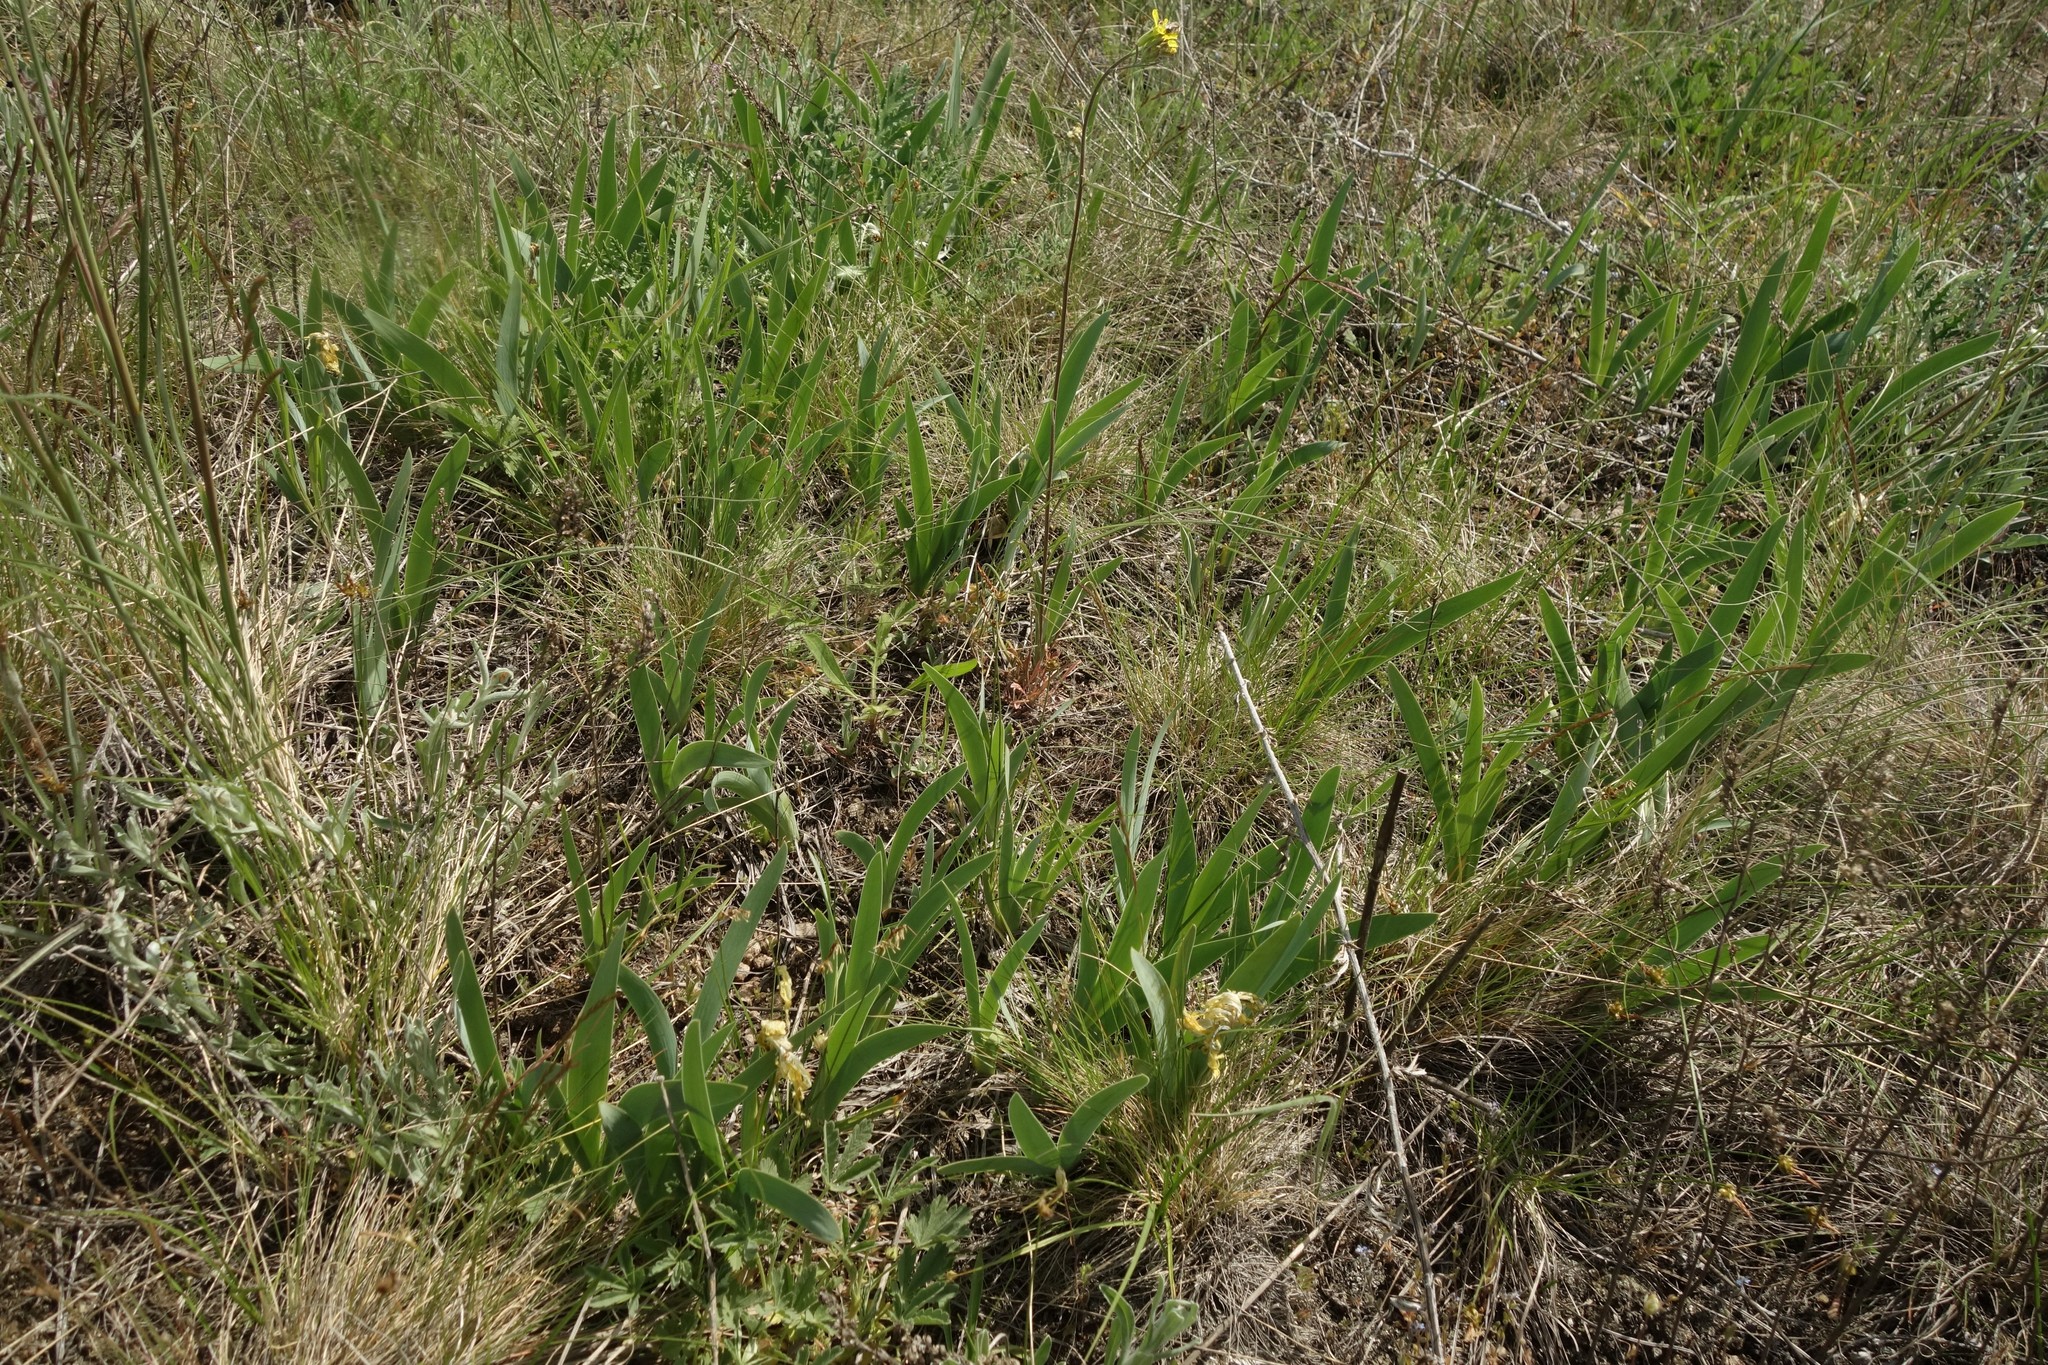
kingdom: Plantae
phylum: Tracheophyta
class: Liliopsida
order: Asparagales
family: Iridaceae
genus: Iris
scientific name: Iris pumila
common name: Dwarf iris
